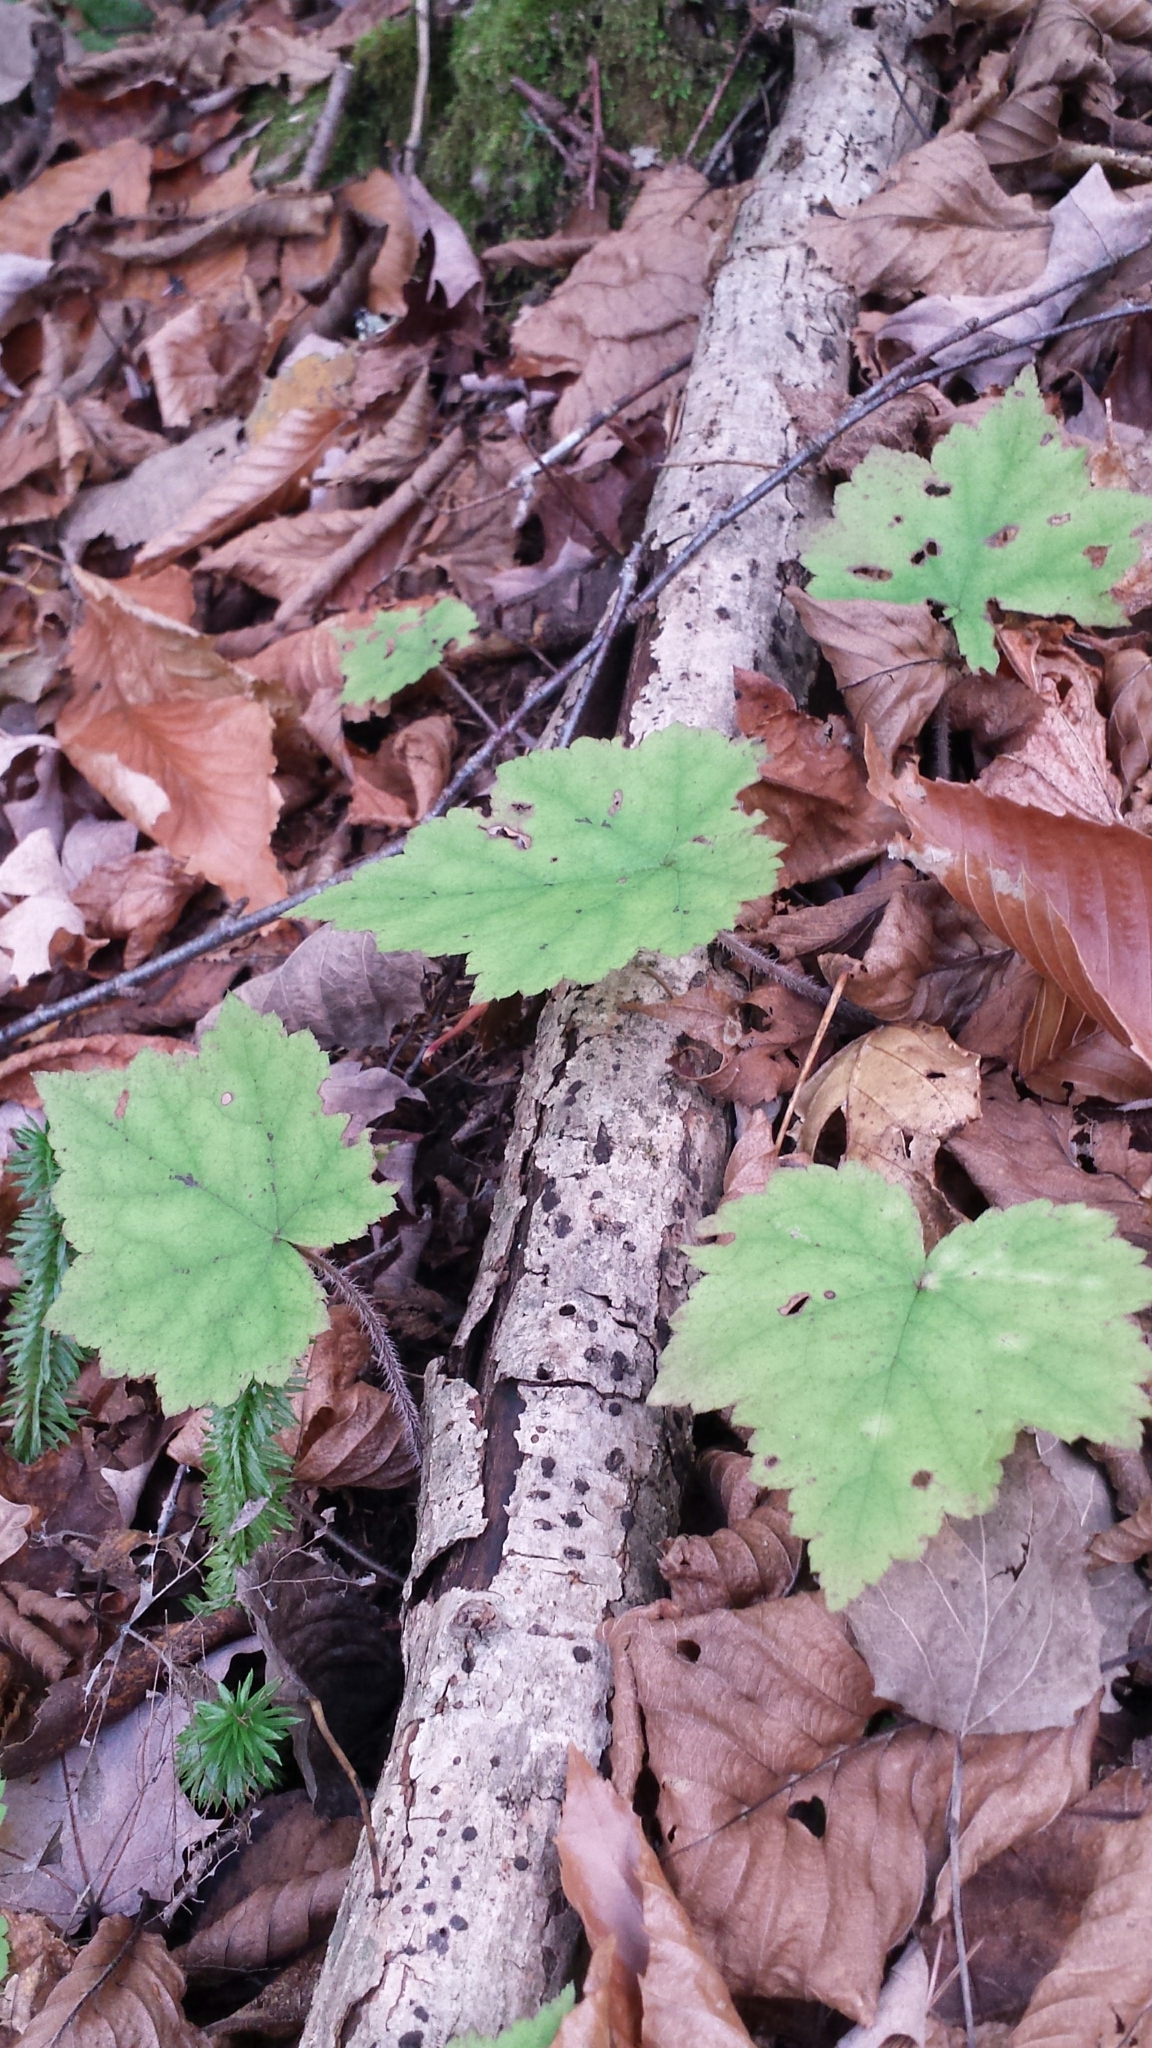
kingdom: Plantae
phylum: Tracheophyta
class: Magnoliopsida
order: Saxifragales
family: Saxifragaceae
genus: Tiarella
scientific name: Tiarella stolonifera
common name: Stoloniferous foamflower
